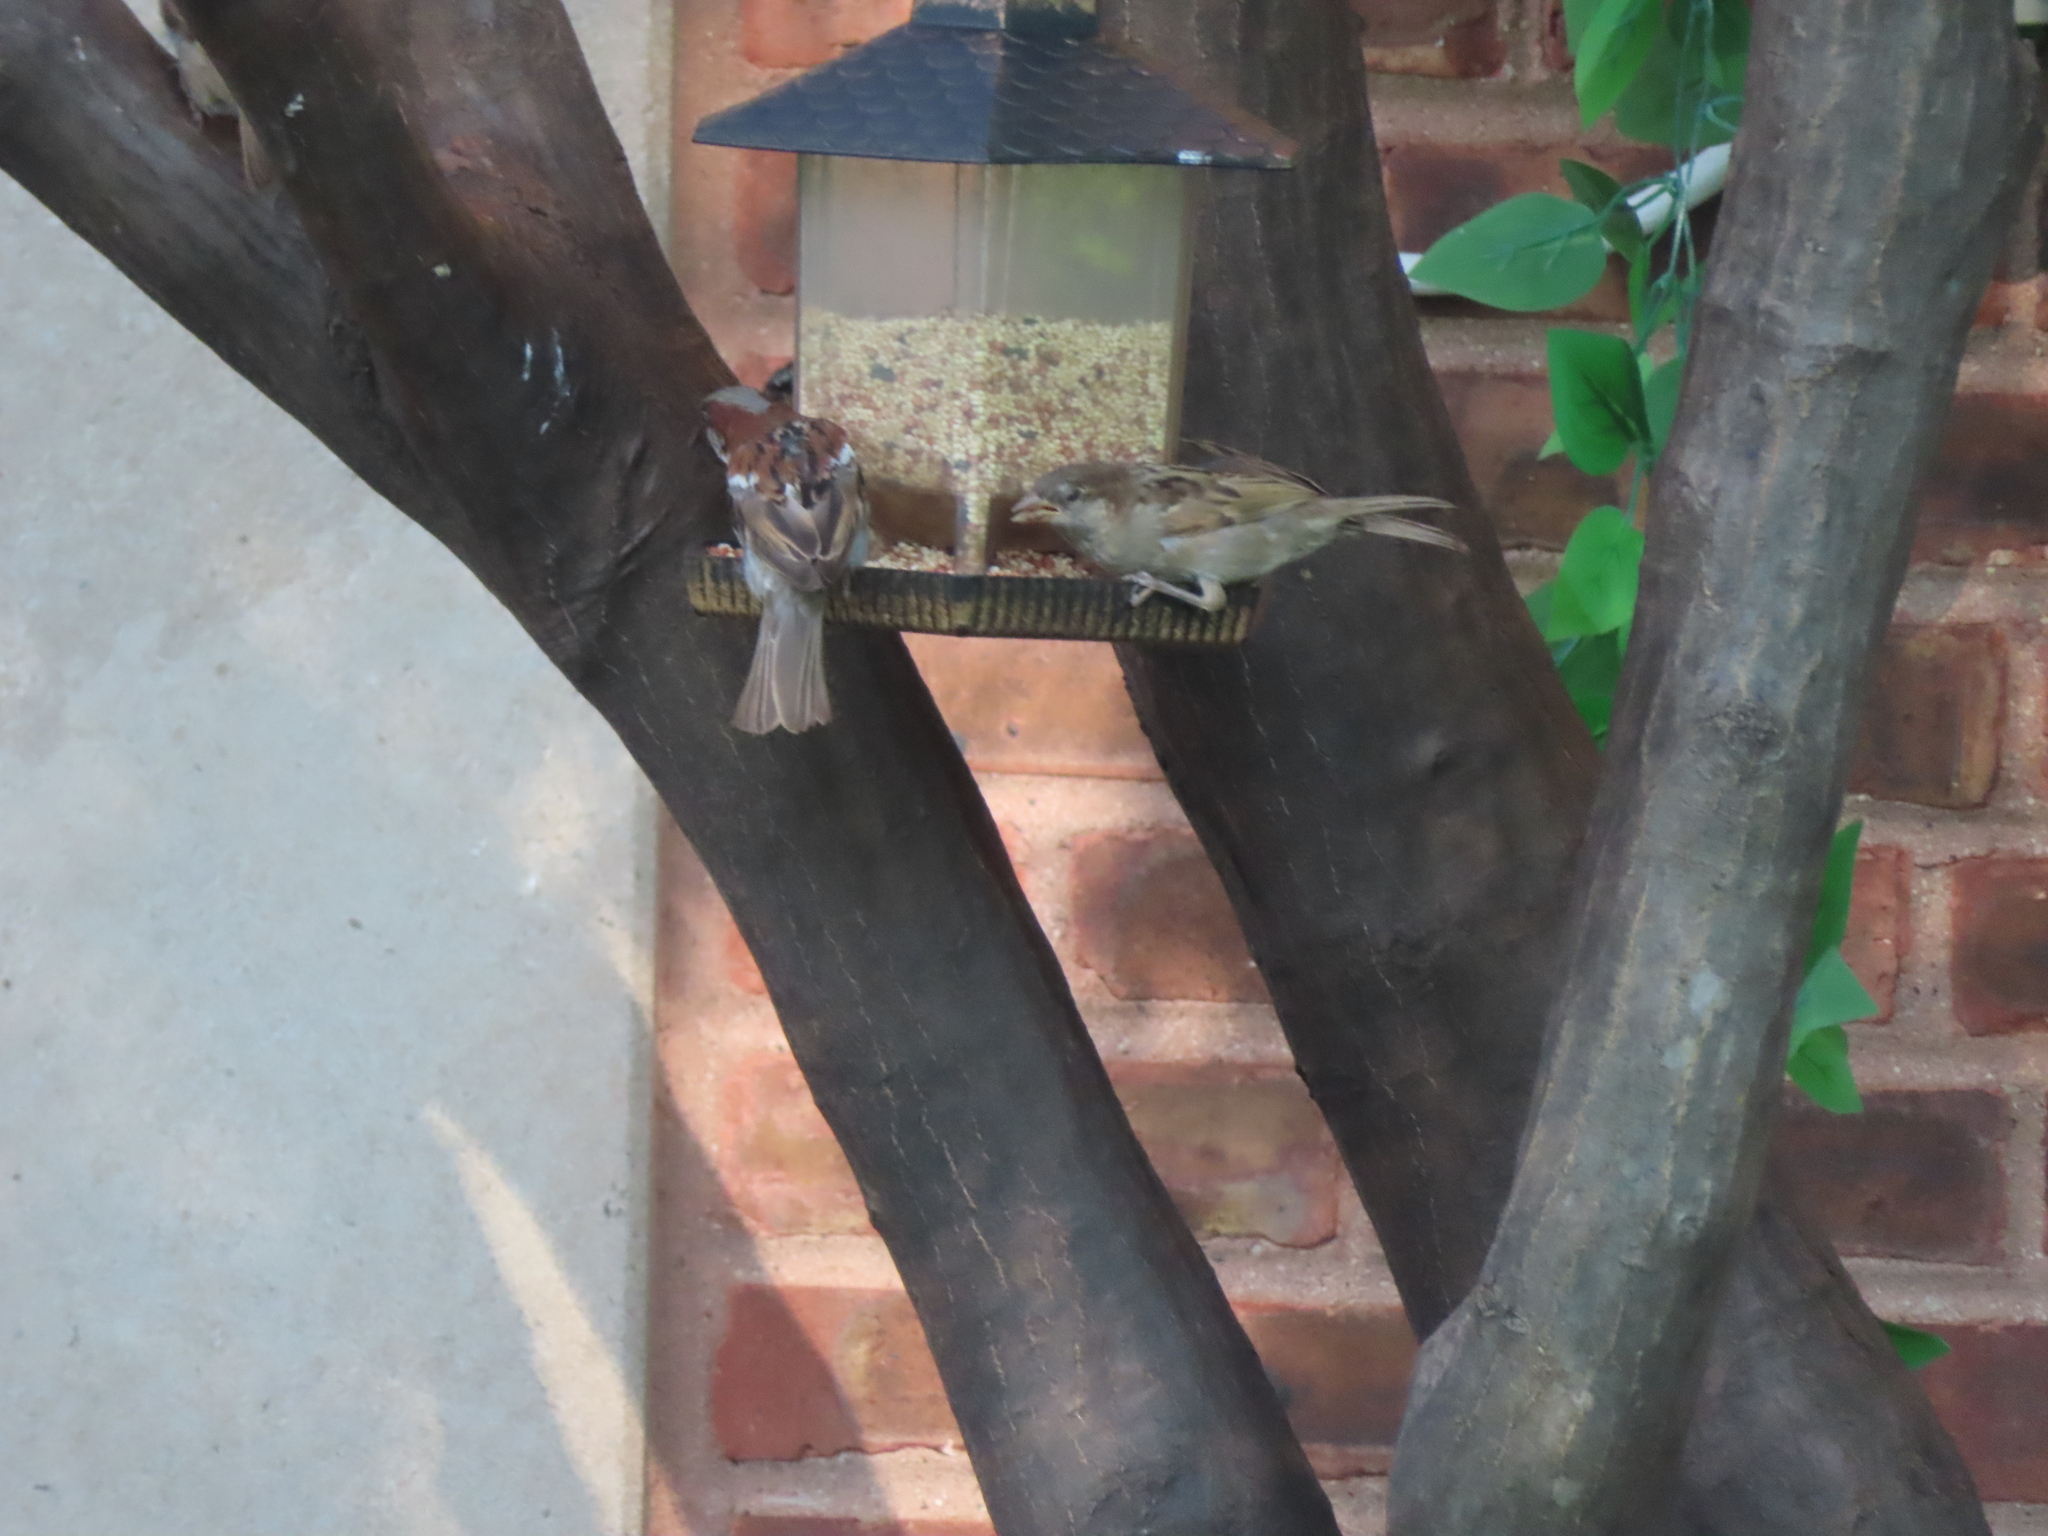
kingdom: Animalia
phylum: Chordata
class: Aves
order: Passeriformes
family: Passeridae
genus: Passer
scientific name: Passer domesticus
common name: House sparrow
